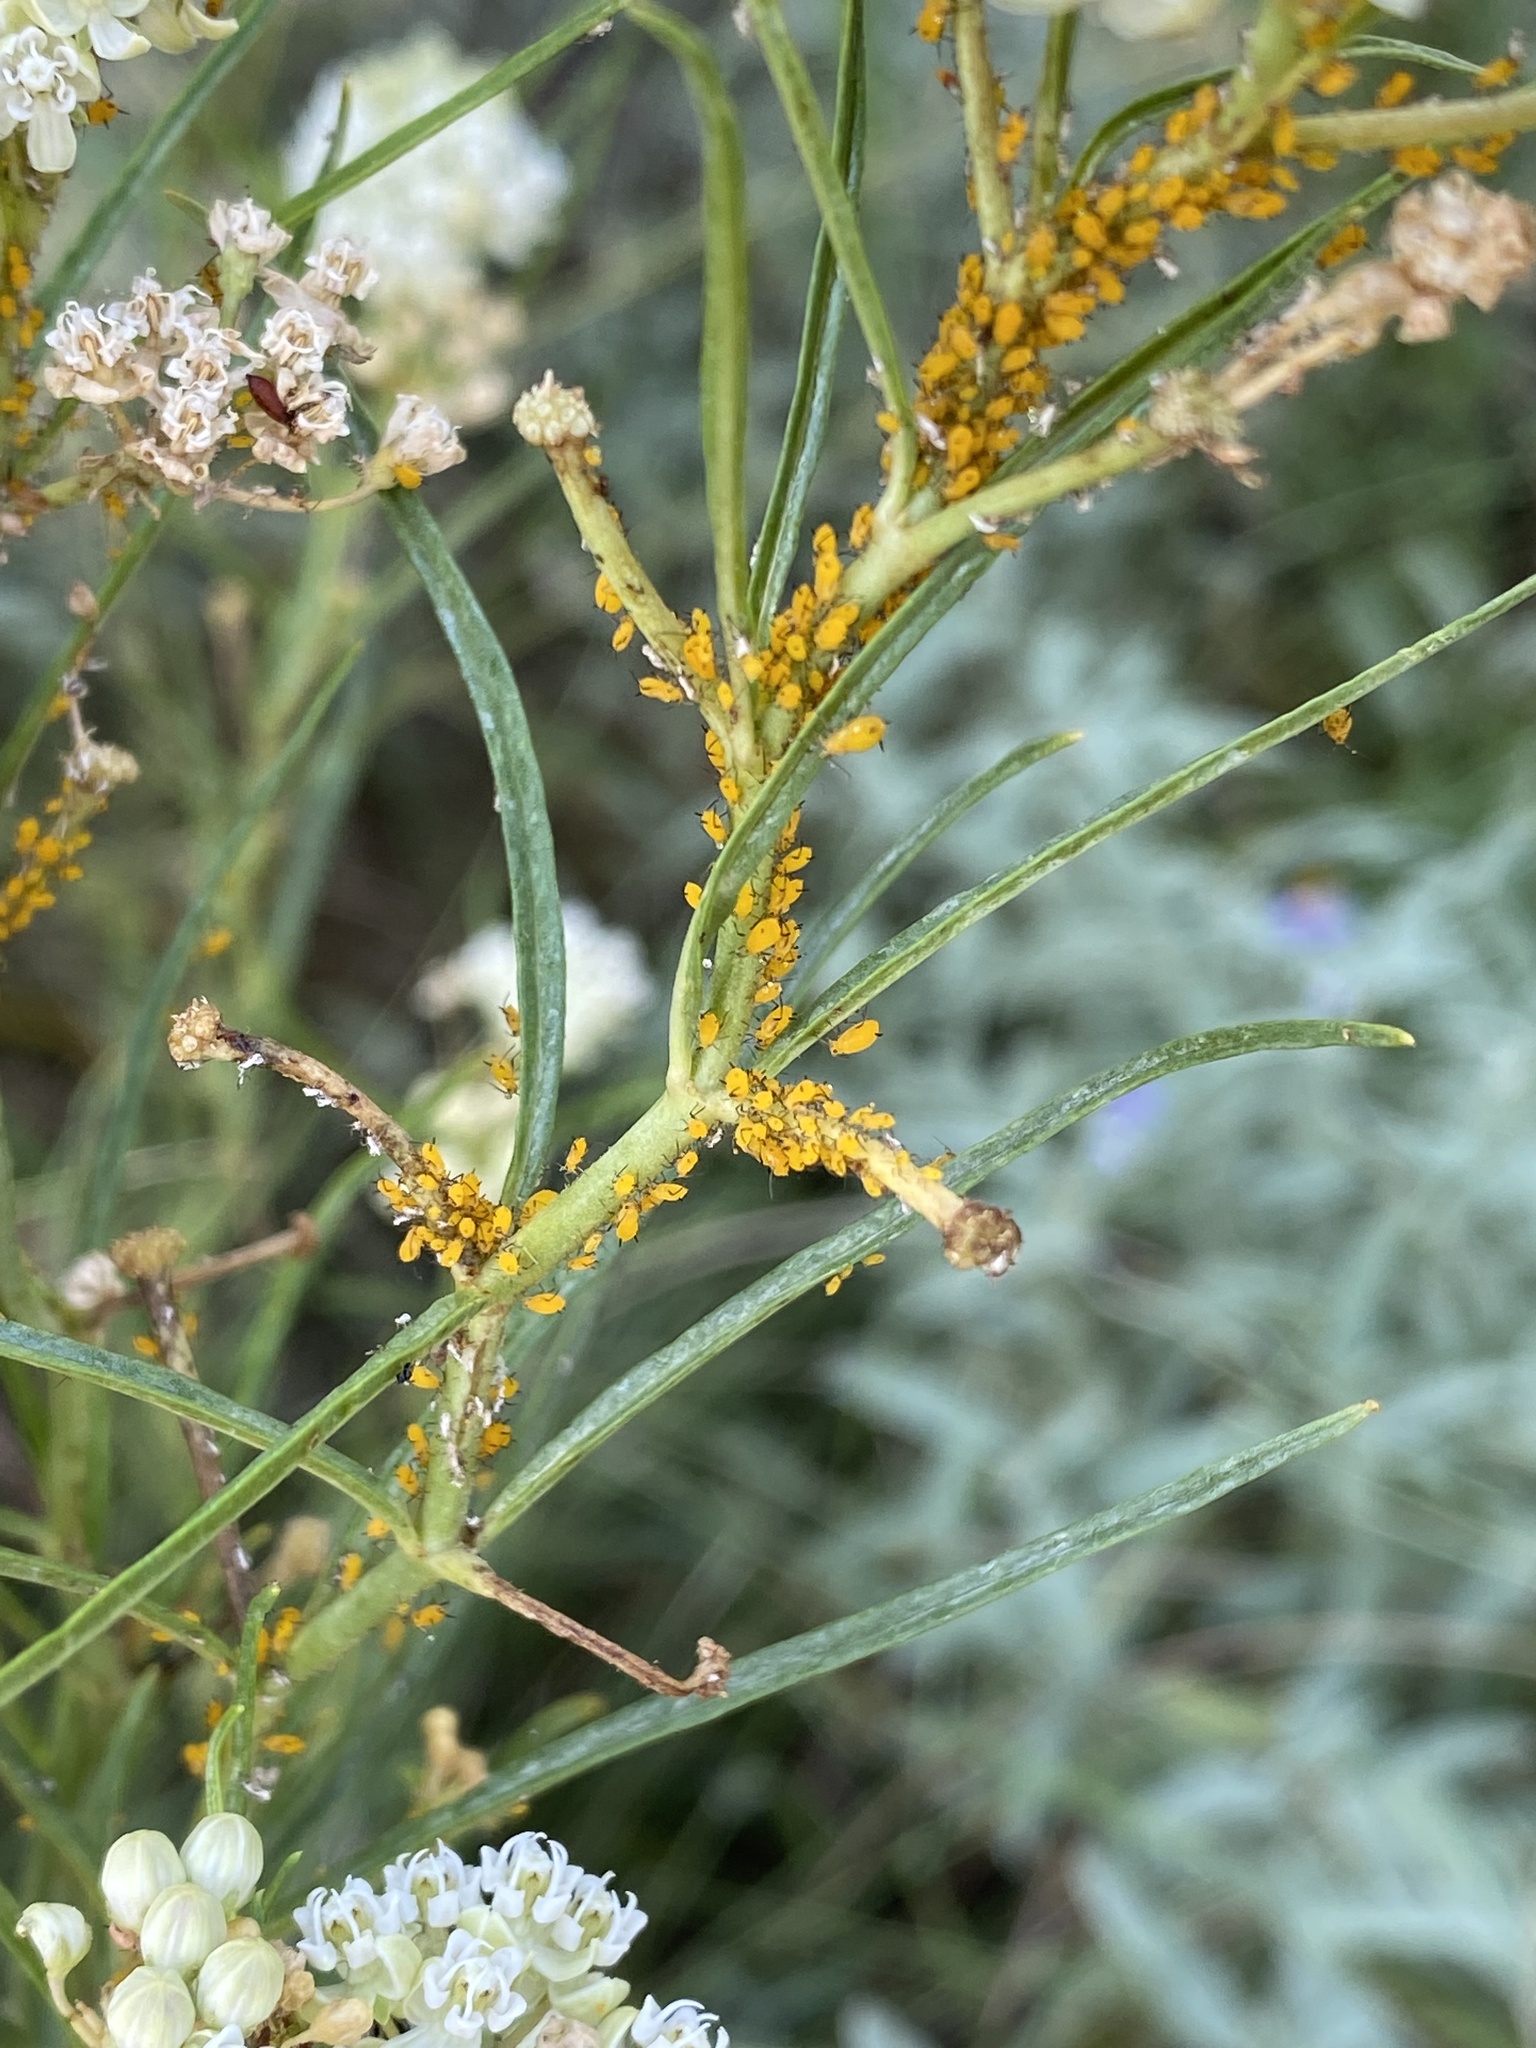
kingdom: Animalia
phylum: Arthropoda
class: Insecta
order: Hemiptera
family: Aphididae
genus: Aphis
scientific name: Aphis nerii
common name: Oleander aphid
